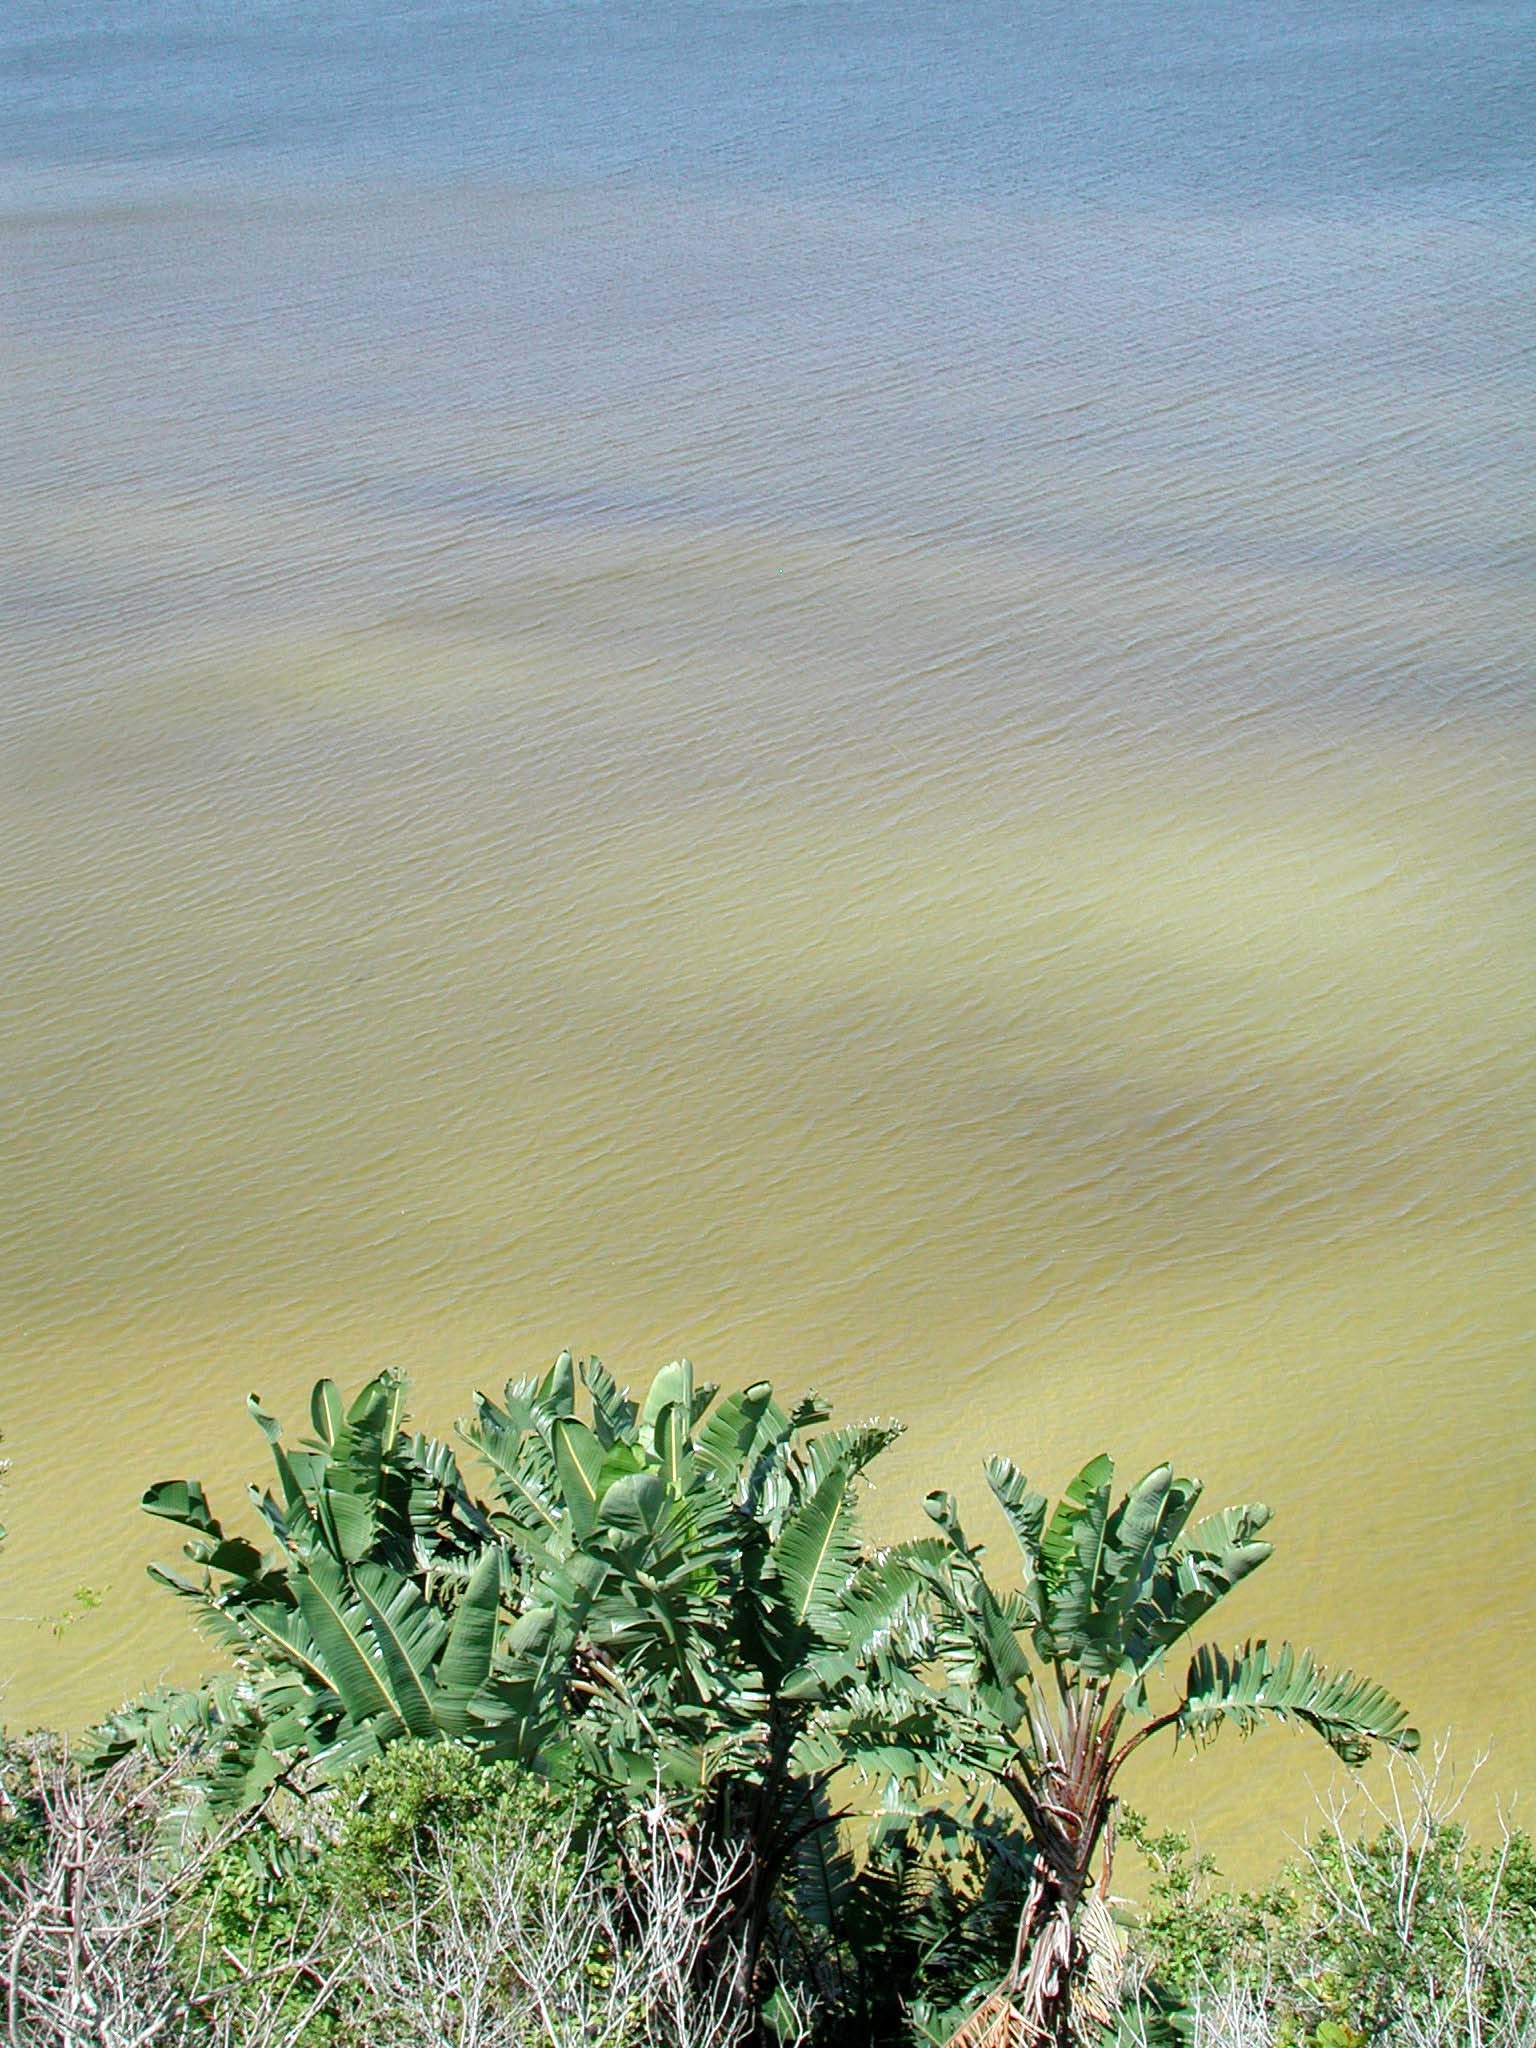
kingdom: Plantae
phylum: Tracheophyta
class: Liliopsida
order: Zingiberales
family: Strelitziaceae
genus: Strelitzia
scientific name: Strelitzia nicolai
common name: Bird-of-paradise tree
